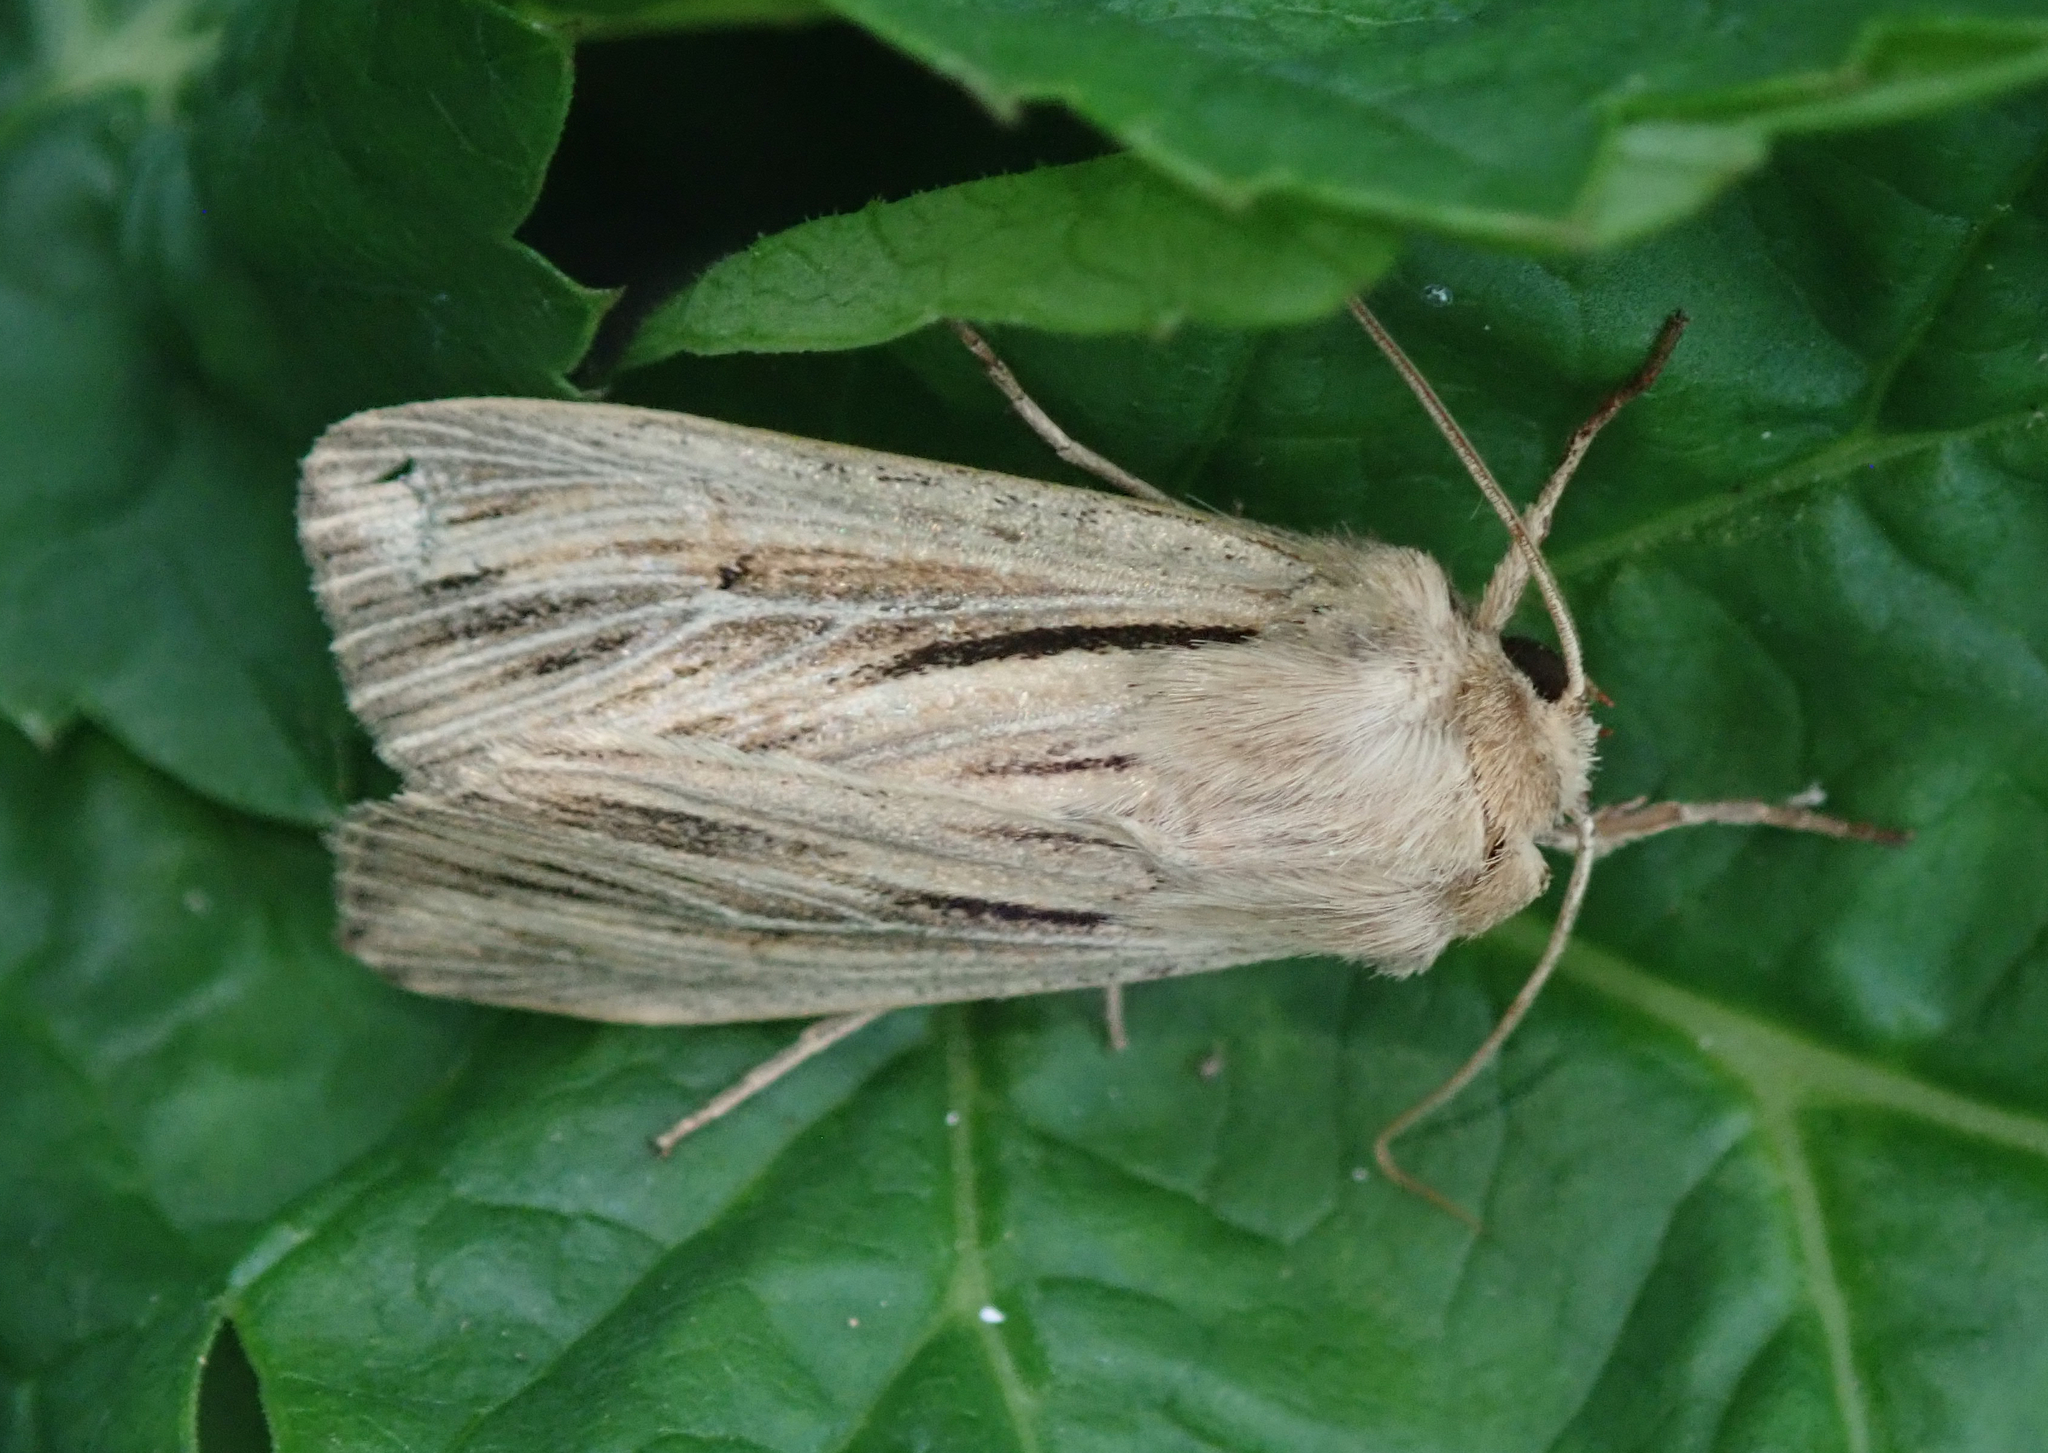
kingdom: Animalia
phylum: Arthropoda
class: Insecta
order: Lepidoptera
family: Noctuidae
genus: Leucania
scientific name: Leucania comma
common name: Shoulder-striped wainscot
